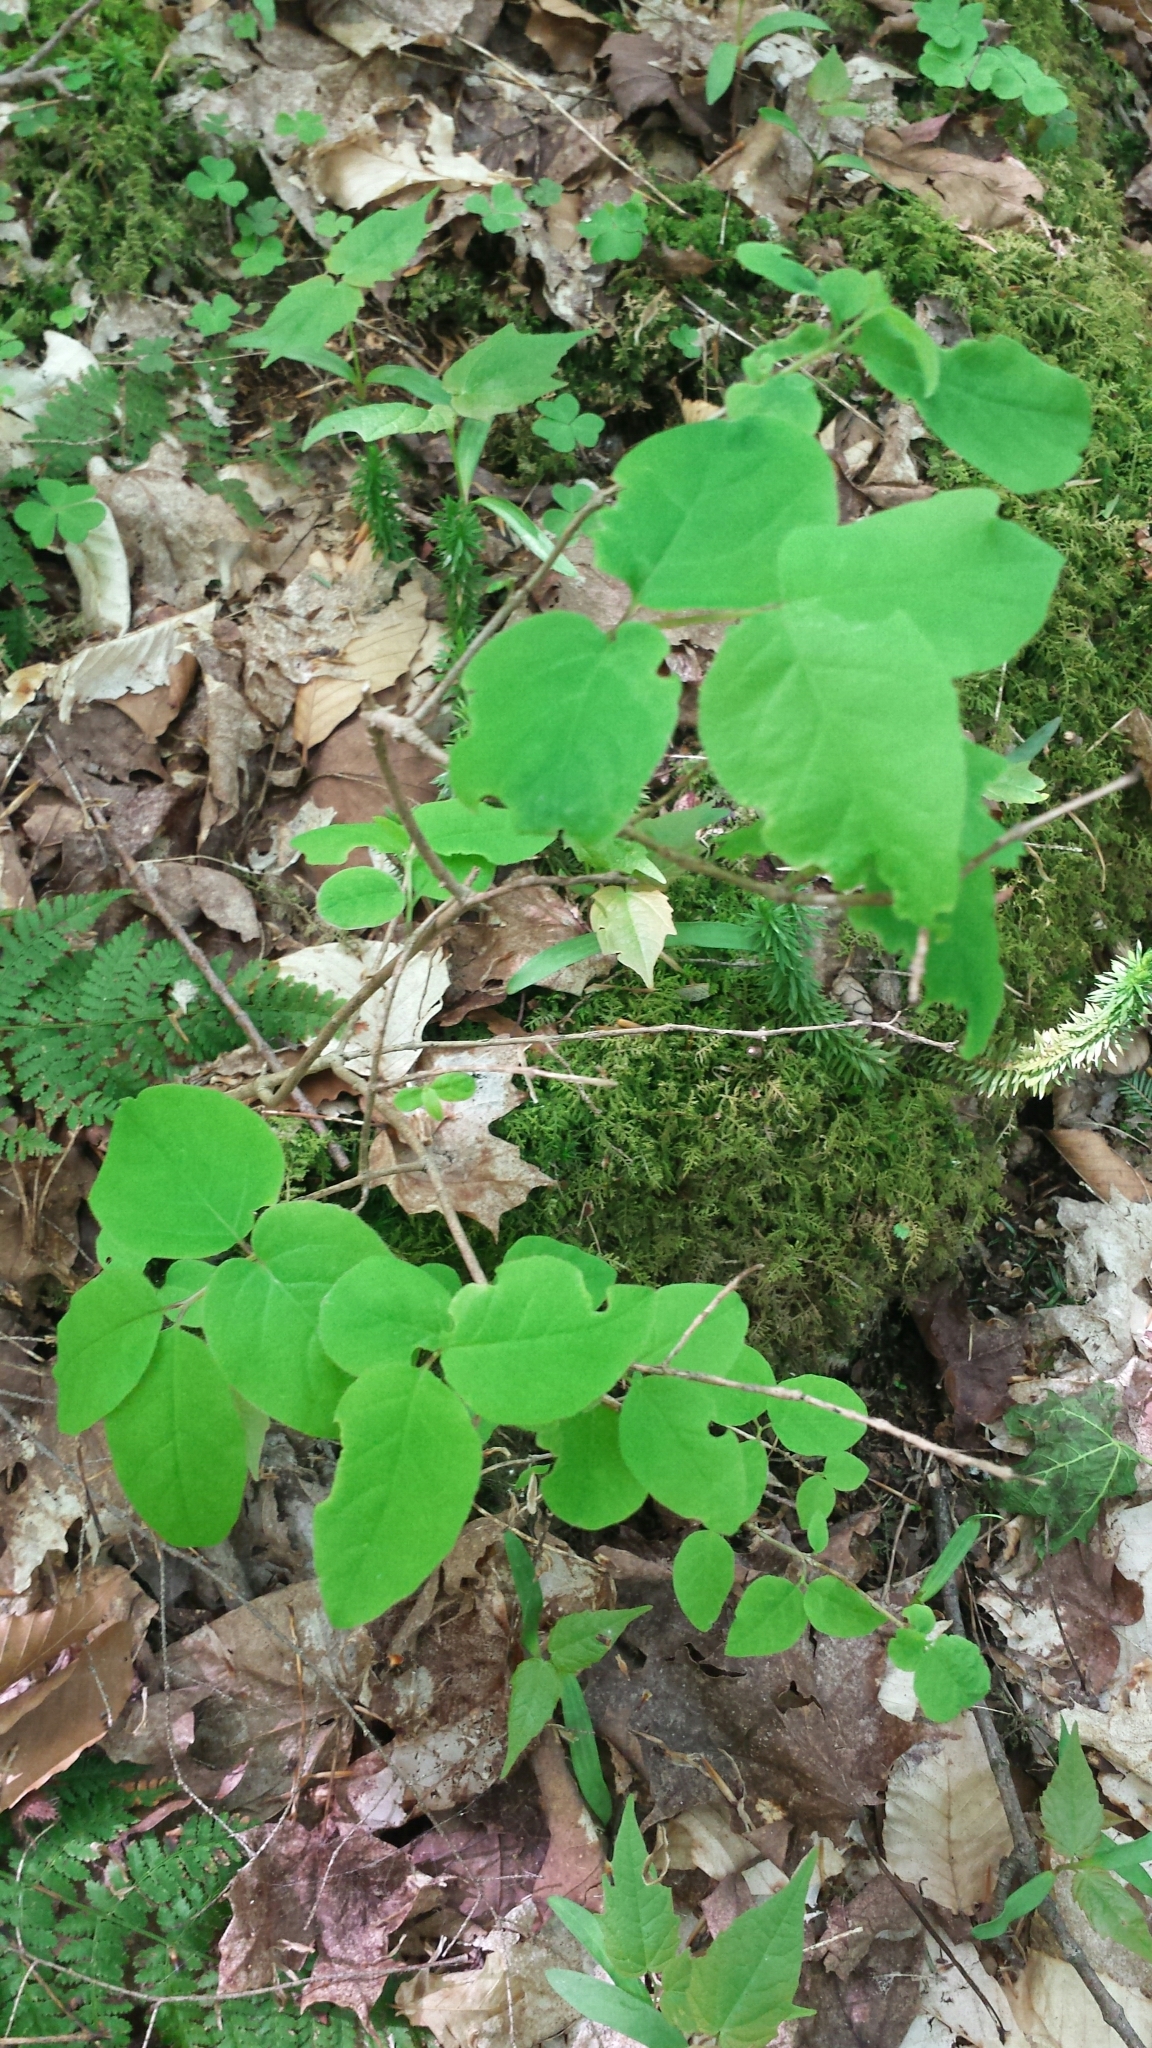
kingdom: Plantae
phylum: Tracheophyta
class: Magnoliopsida
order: Dipsacales
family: Caprifoliaceae
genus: Lonicera
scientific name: Lonicera canadensis
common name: American fly-honeysuckle
